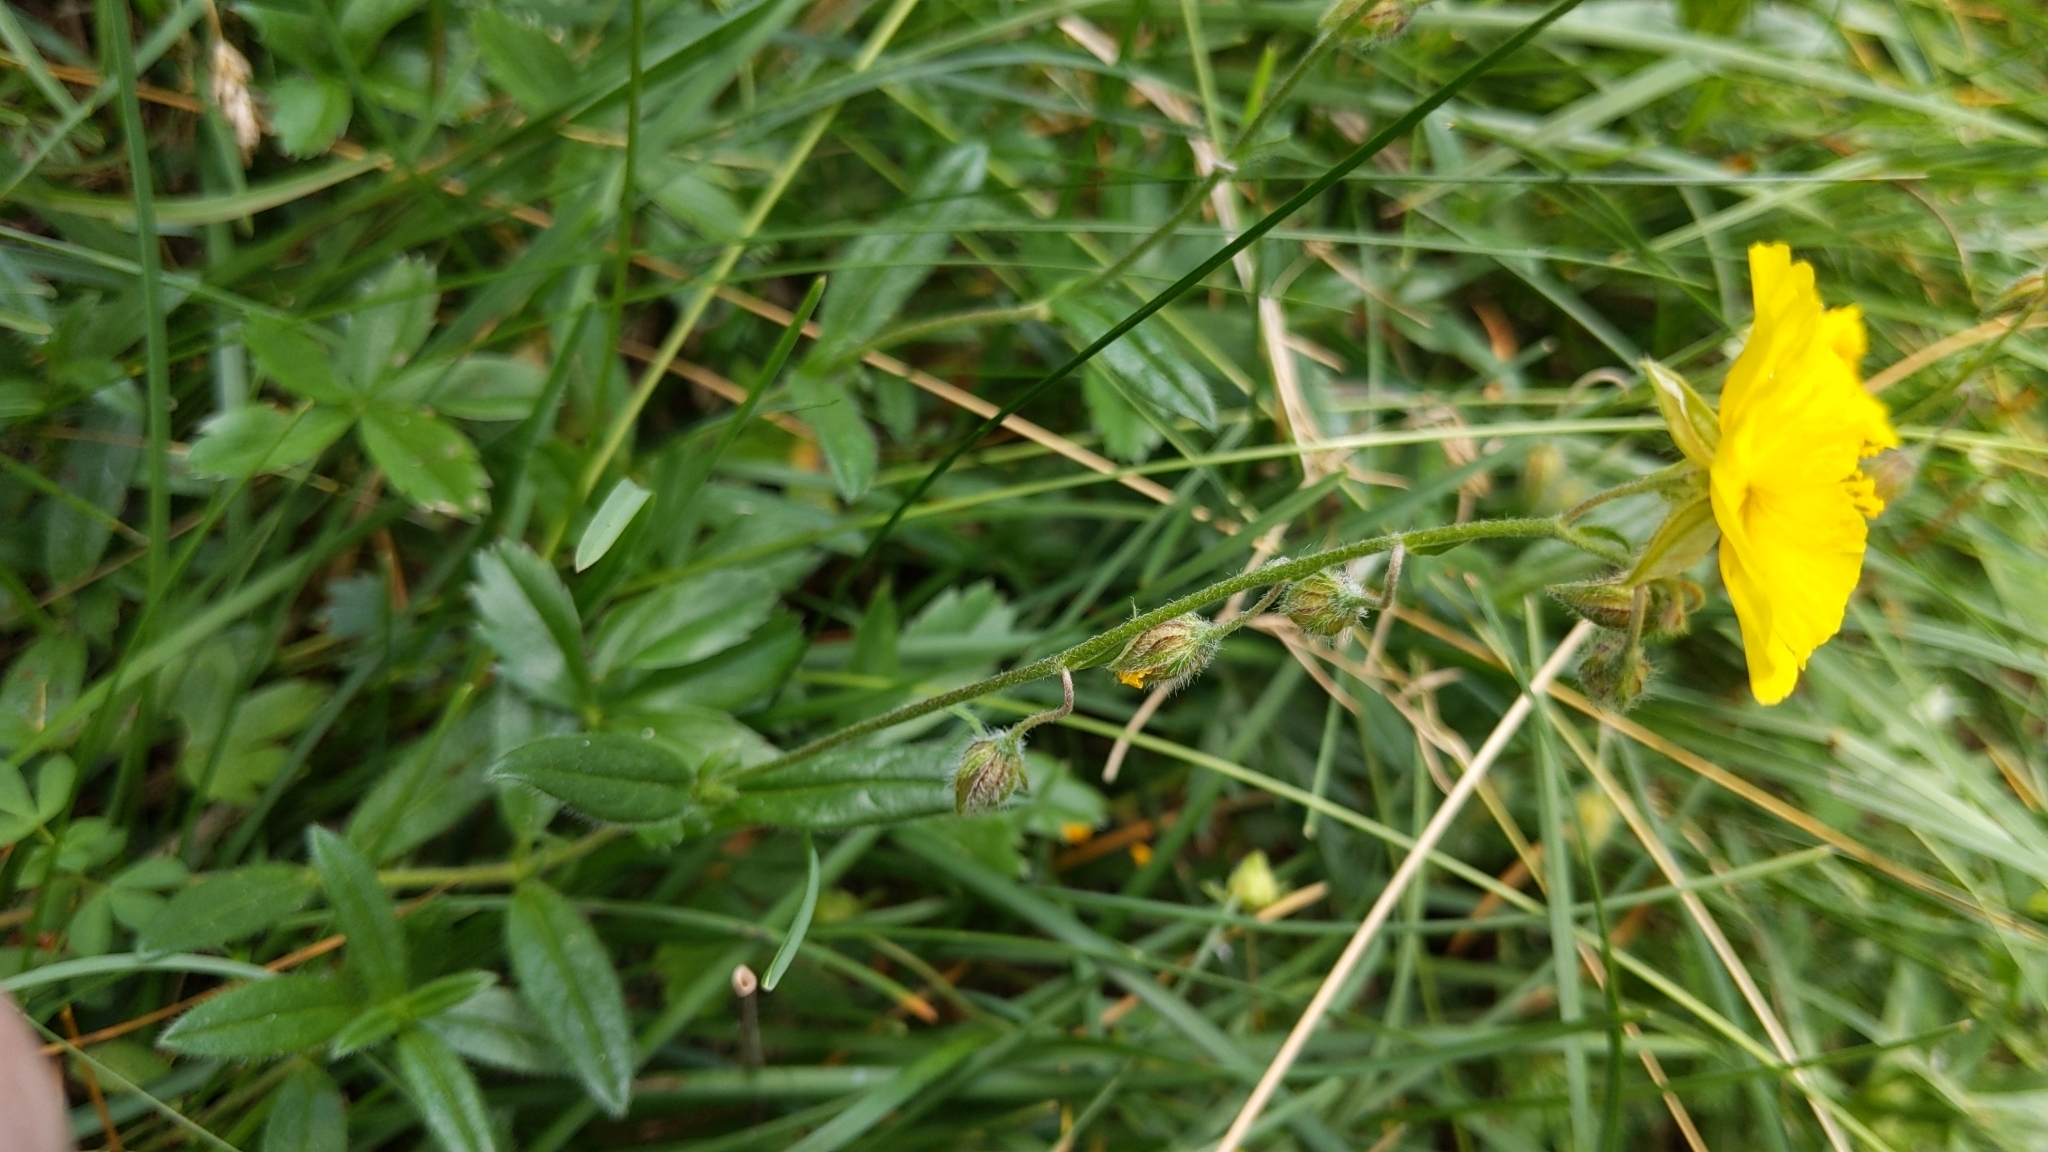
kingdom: Plantae
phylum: Tracheophyta
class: Magnoliopsida
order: Malvales
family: Cistaceae
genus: Helianthemum
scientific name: Helianthemum nummularium
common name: Common rock-rose
